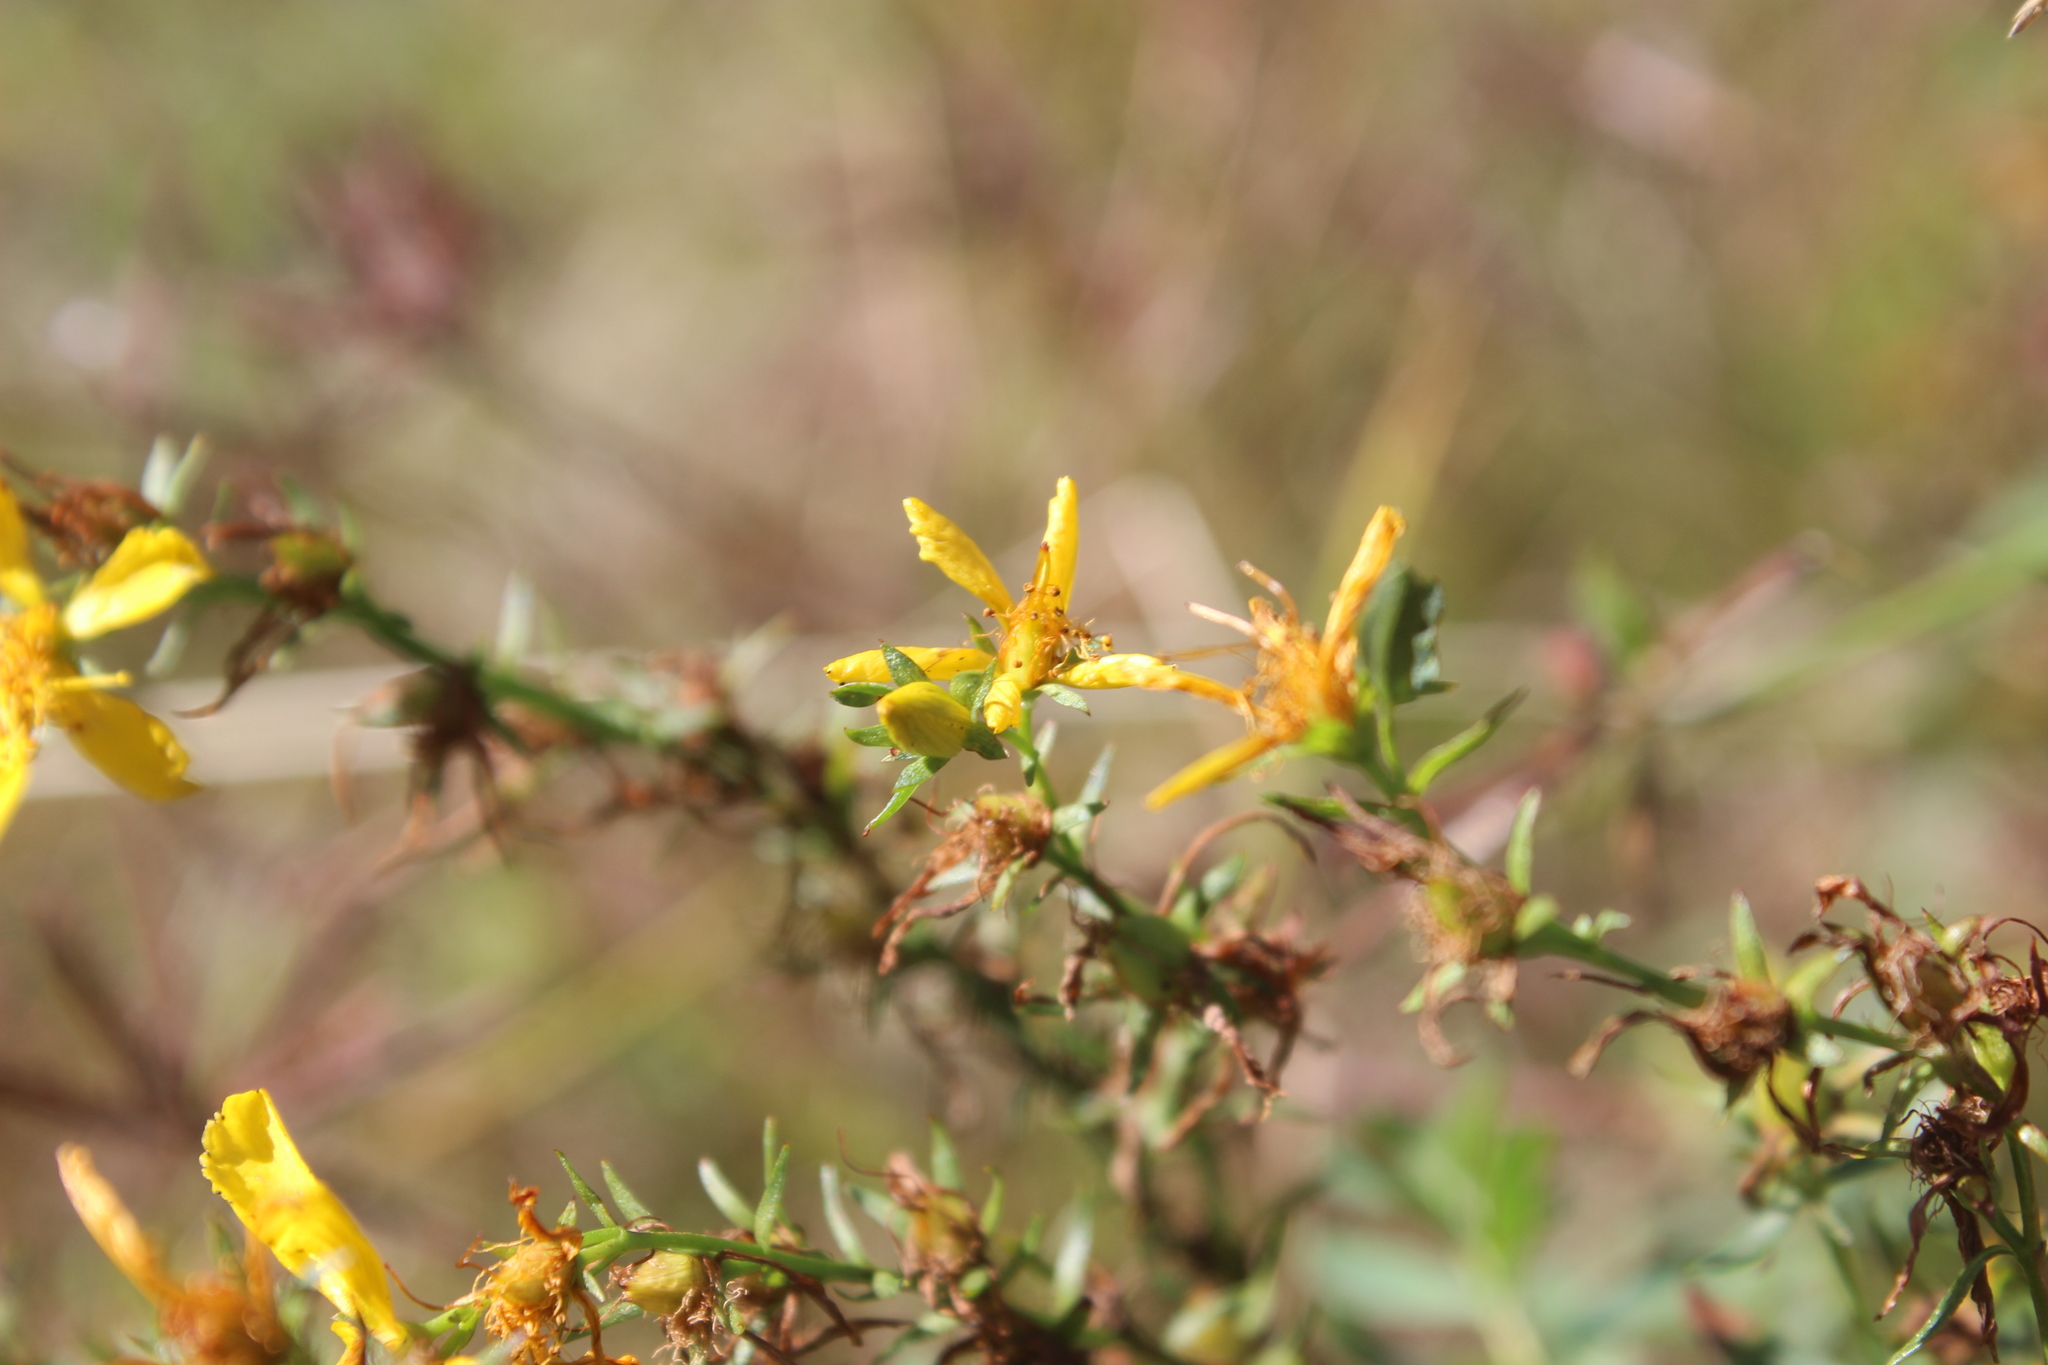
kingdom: Plantae
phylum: Tracheophyta
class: Magnoliopsida
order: Malpighiales
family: Hypericaceae
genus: Hypericum
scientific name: Hypericum perforatum
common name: Common st. johnswort
